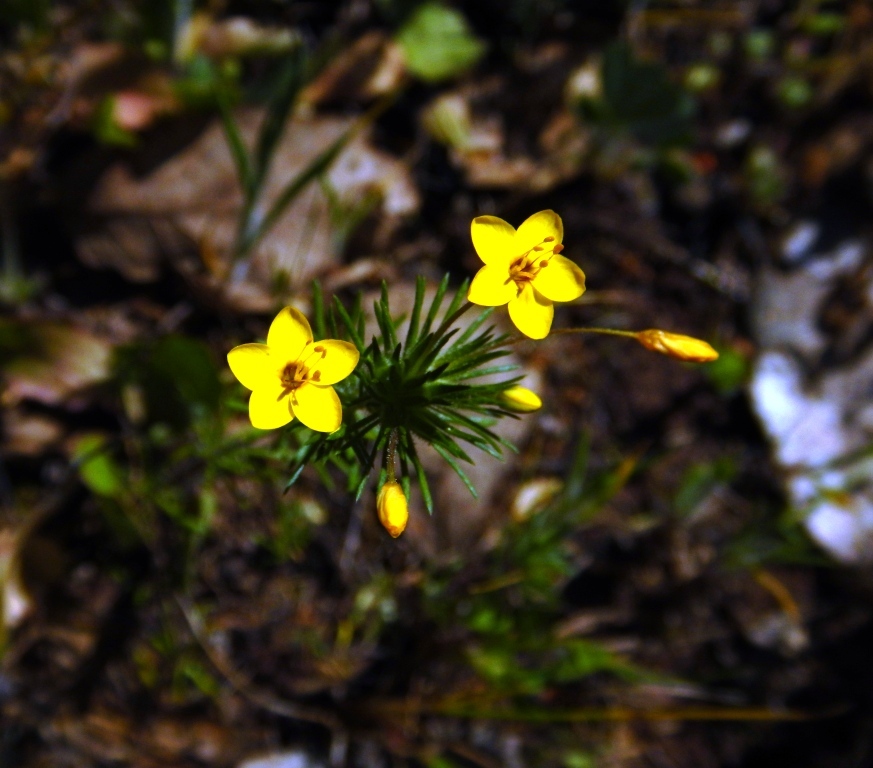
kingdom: Plantae
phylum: Tracheophyta
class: Magnoliopsida
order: Ericales
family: Polemoniaceae
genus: Leptosiphon
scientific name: Leptosiphon acicularis
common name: Bristly linanthus
